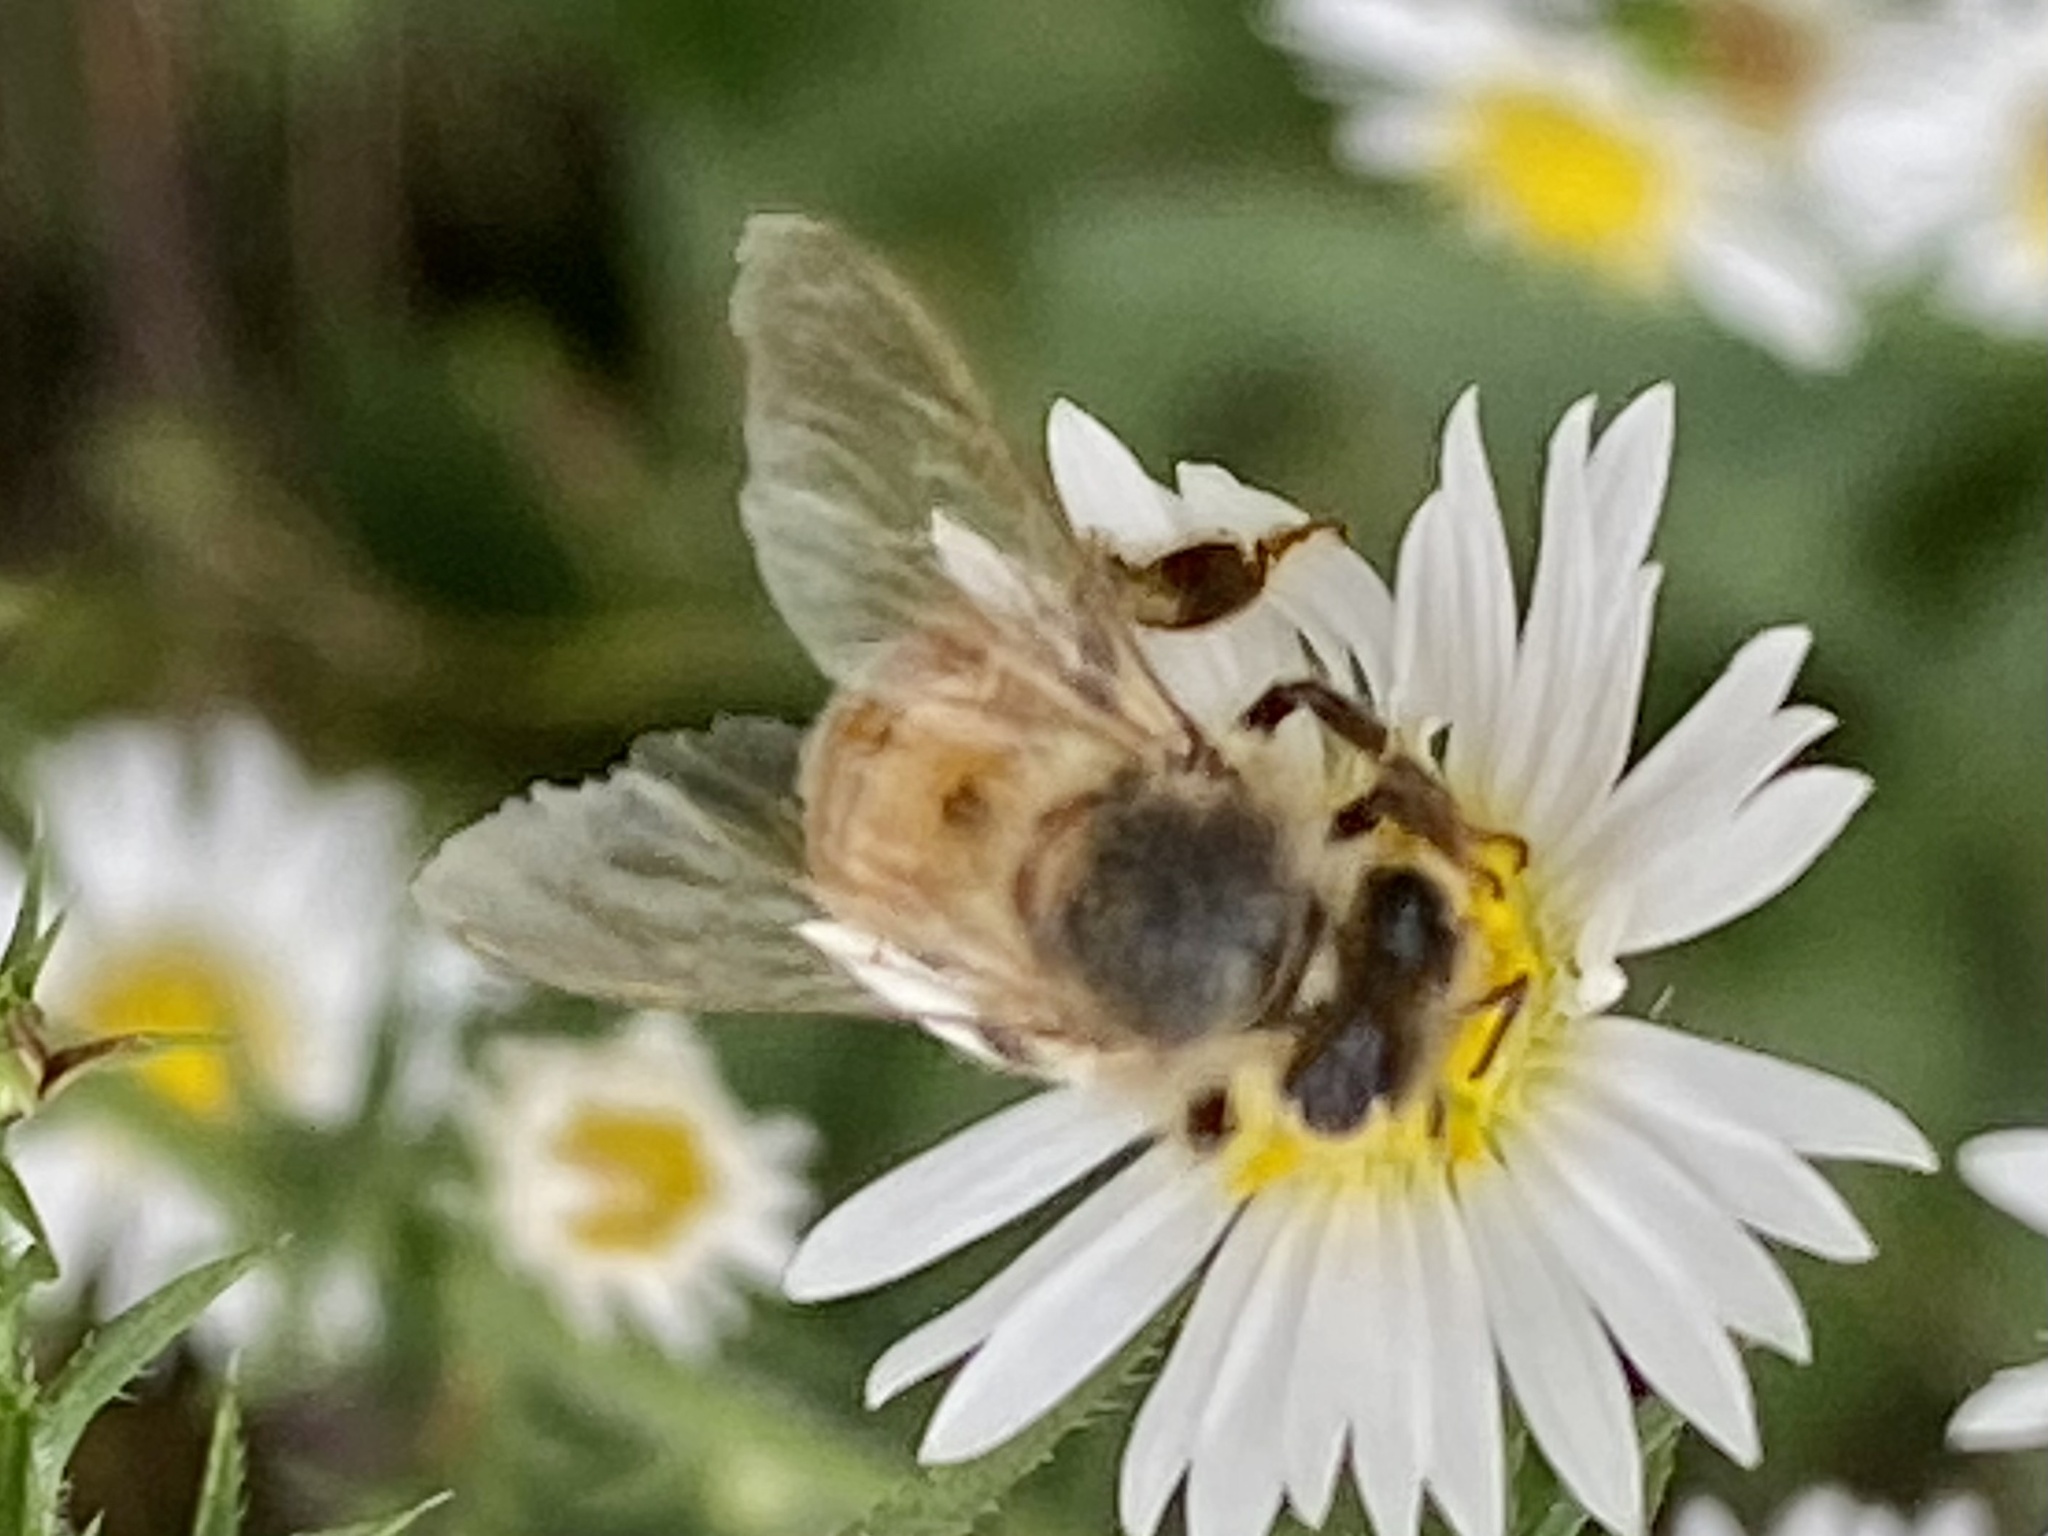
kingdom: Animalia
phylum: Arthropoda
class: Insecta
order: Hymenoptera
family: Apidae
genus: Apis
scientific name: Apis mellifera
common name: Honey bee
